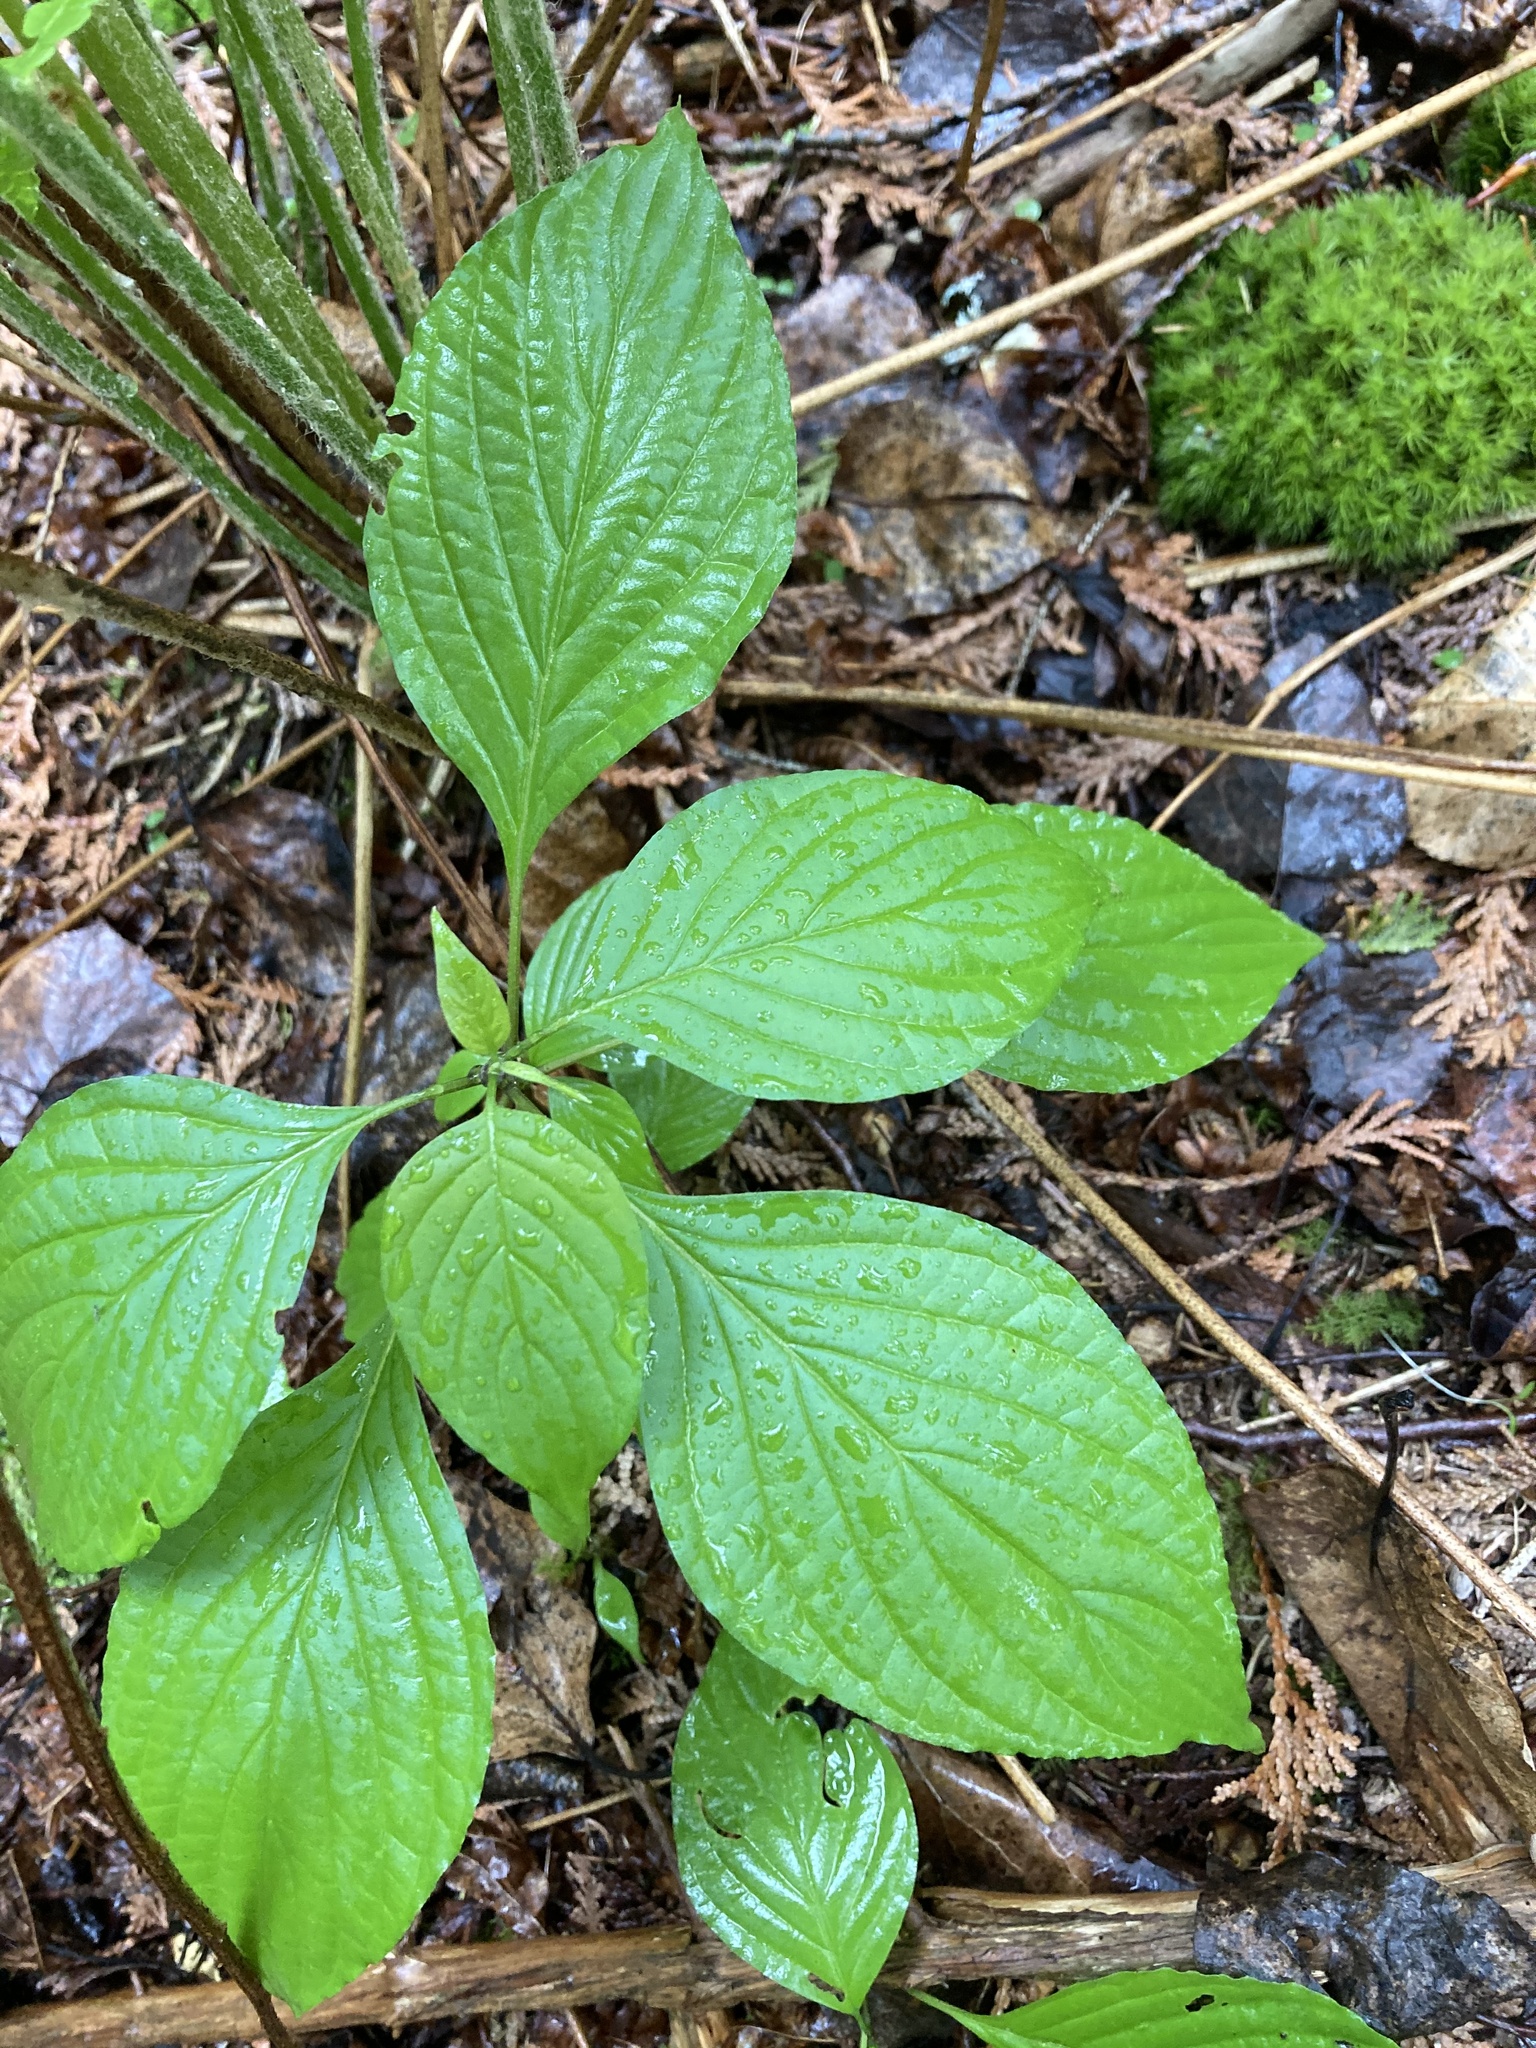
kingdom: Plantae
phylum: Tracheophyta
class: Magnoliopsida
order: Cornales
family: Cornaceae
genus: Cornus
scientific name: Cornus alternifolia
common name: Pagoda dogwood
